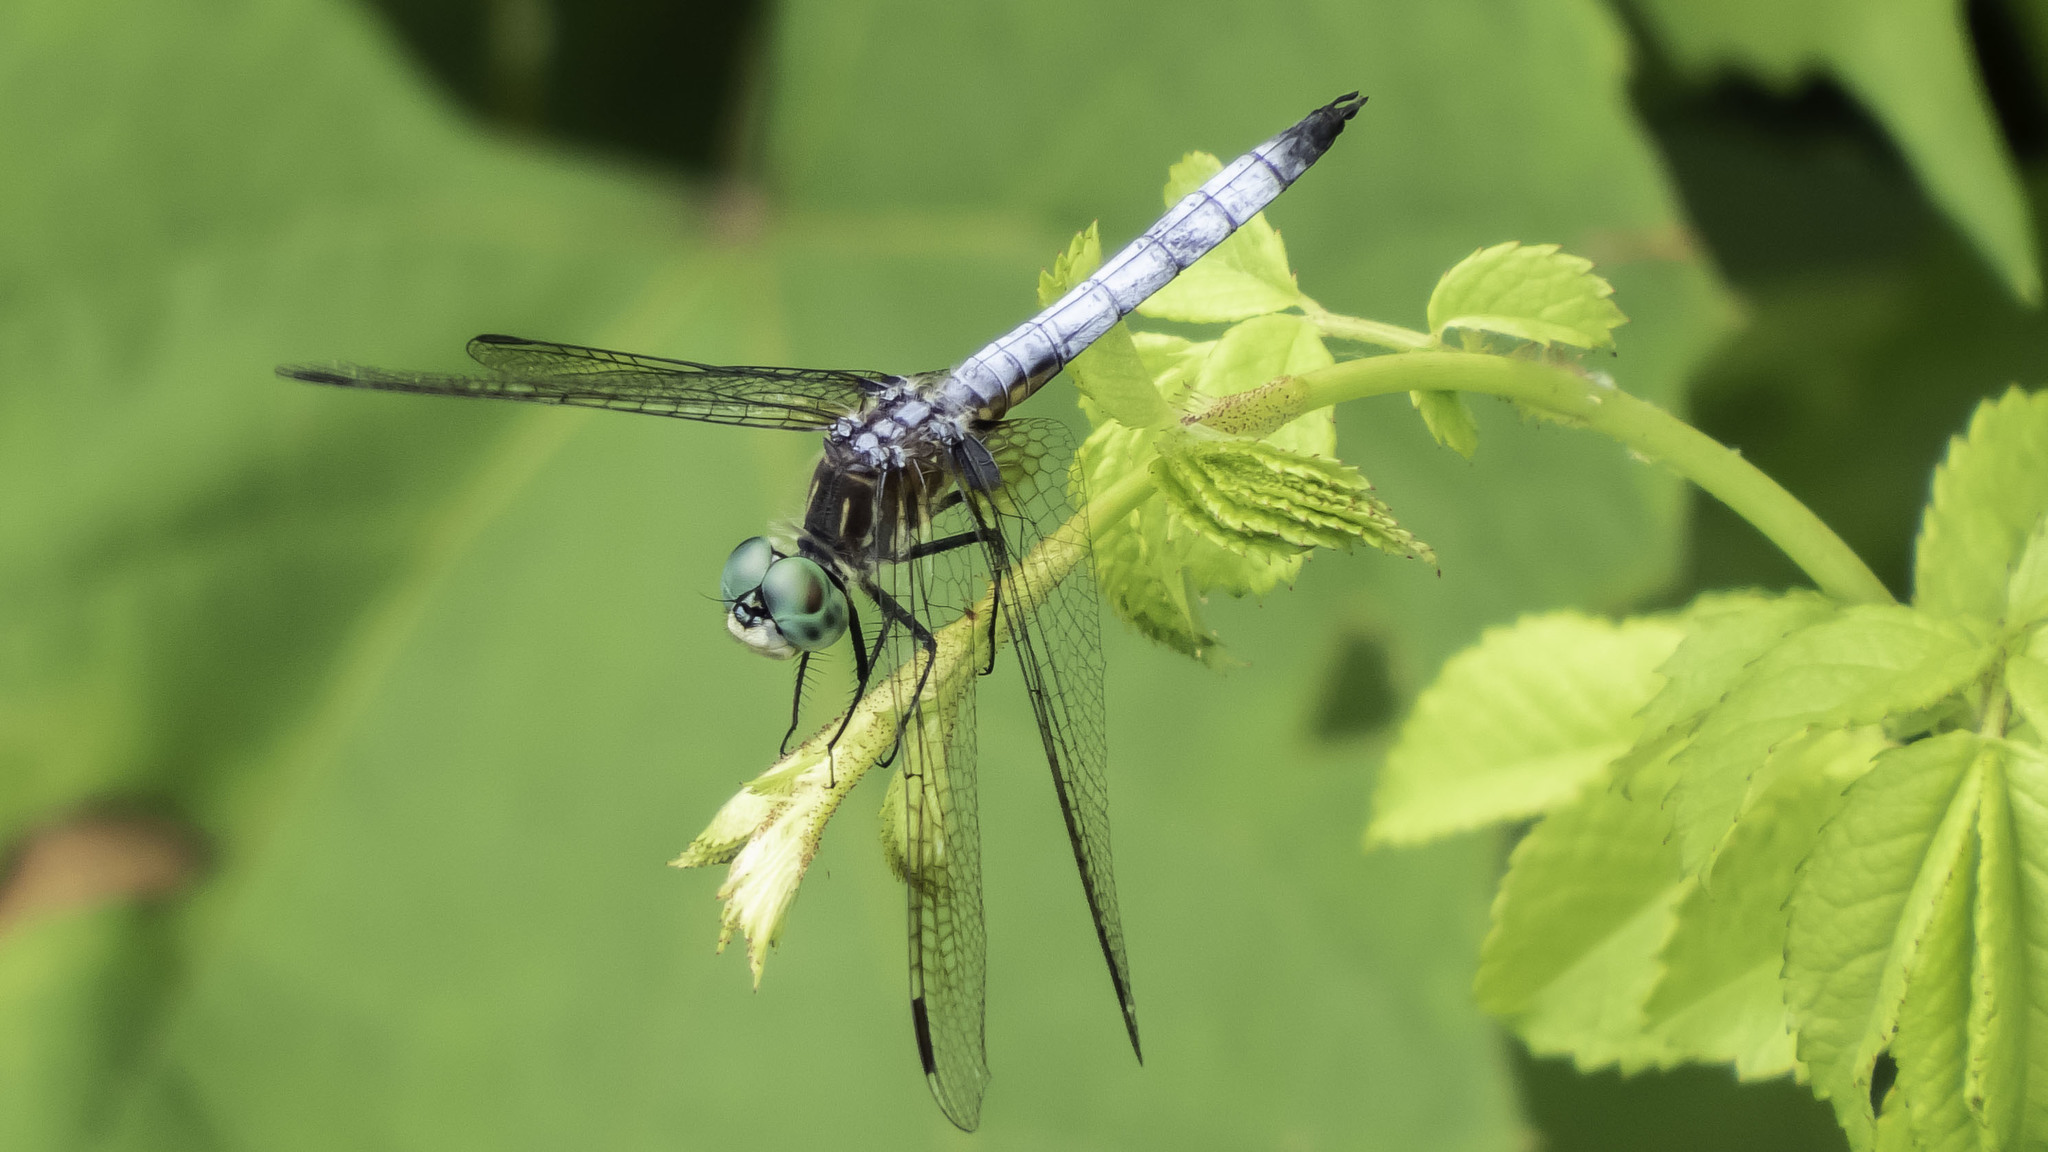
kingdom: Animalia
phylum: Arthropoda
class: Insecta
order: Odonata
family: Libellulidae
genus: Pachydiplax
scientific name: Pachydiplax longipennis
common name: Blue dasher
